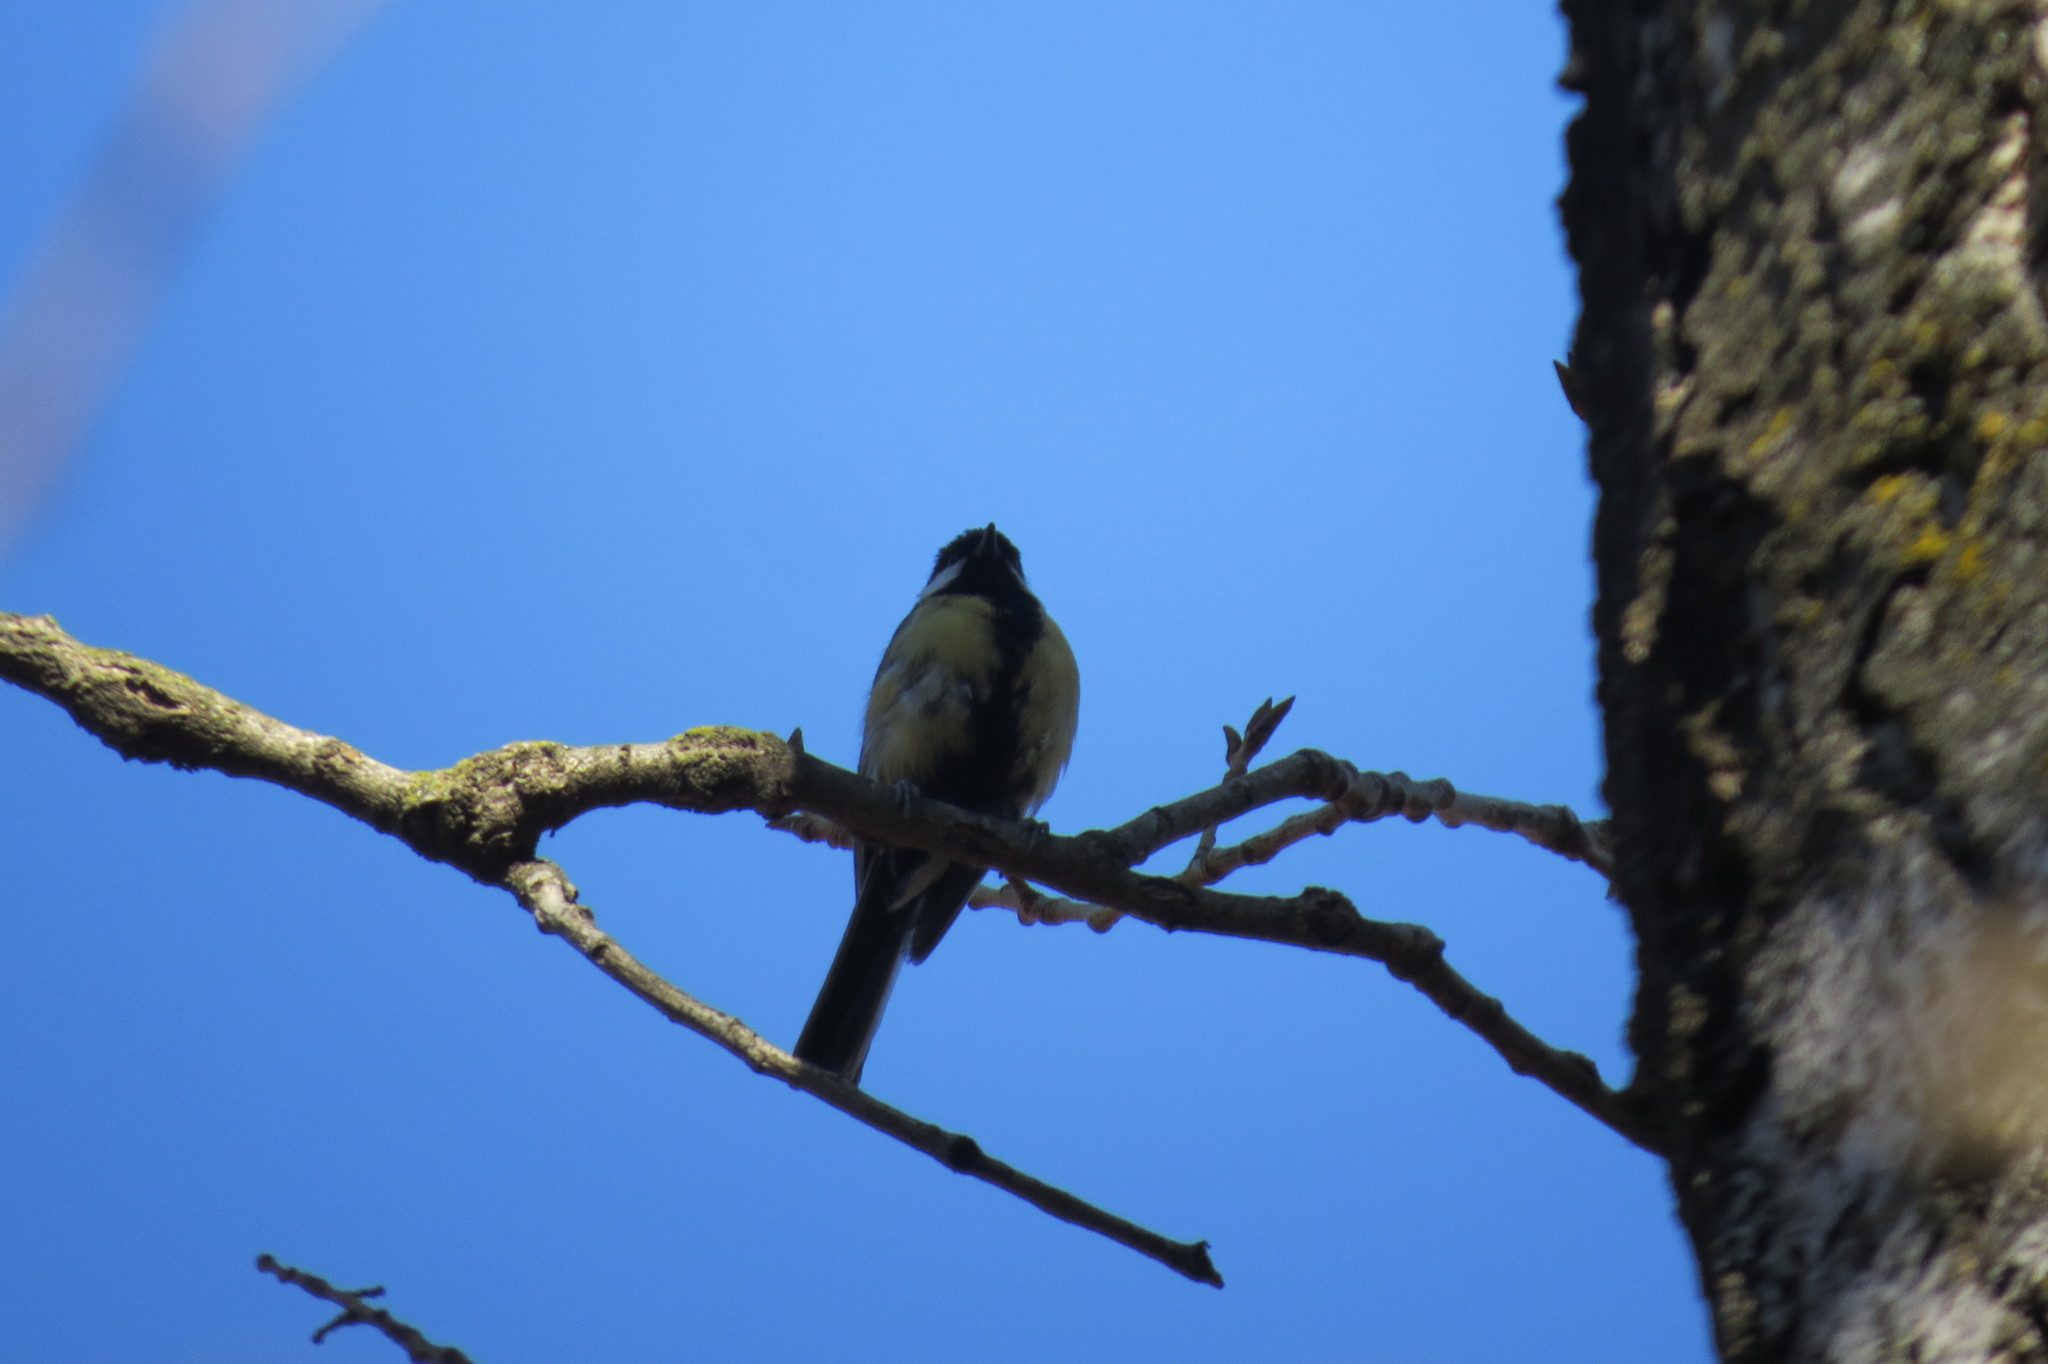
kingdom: Animalia
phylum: Chordata
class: Aves
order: Passeriformes
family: Paridae
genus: Parus
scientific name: Parus major
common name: Great tit
